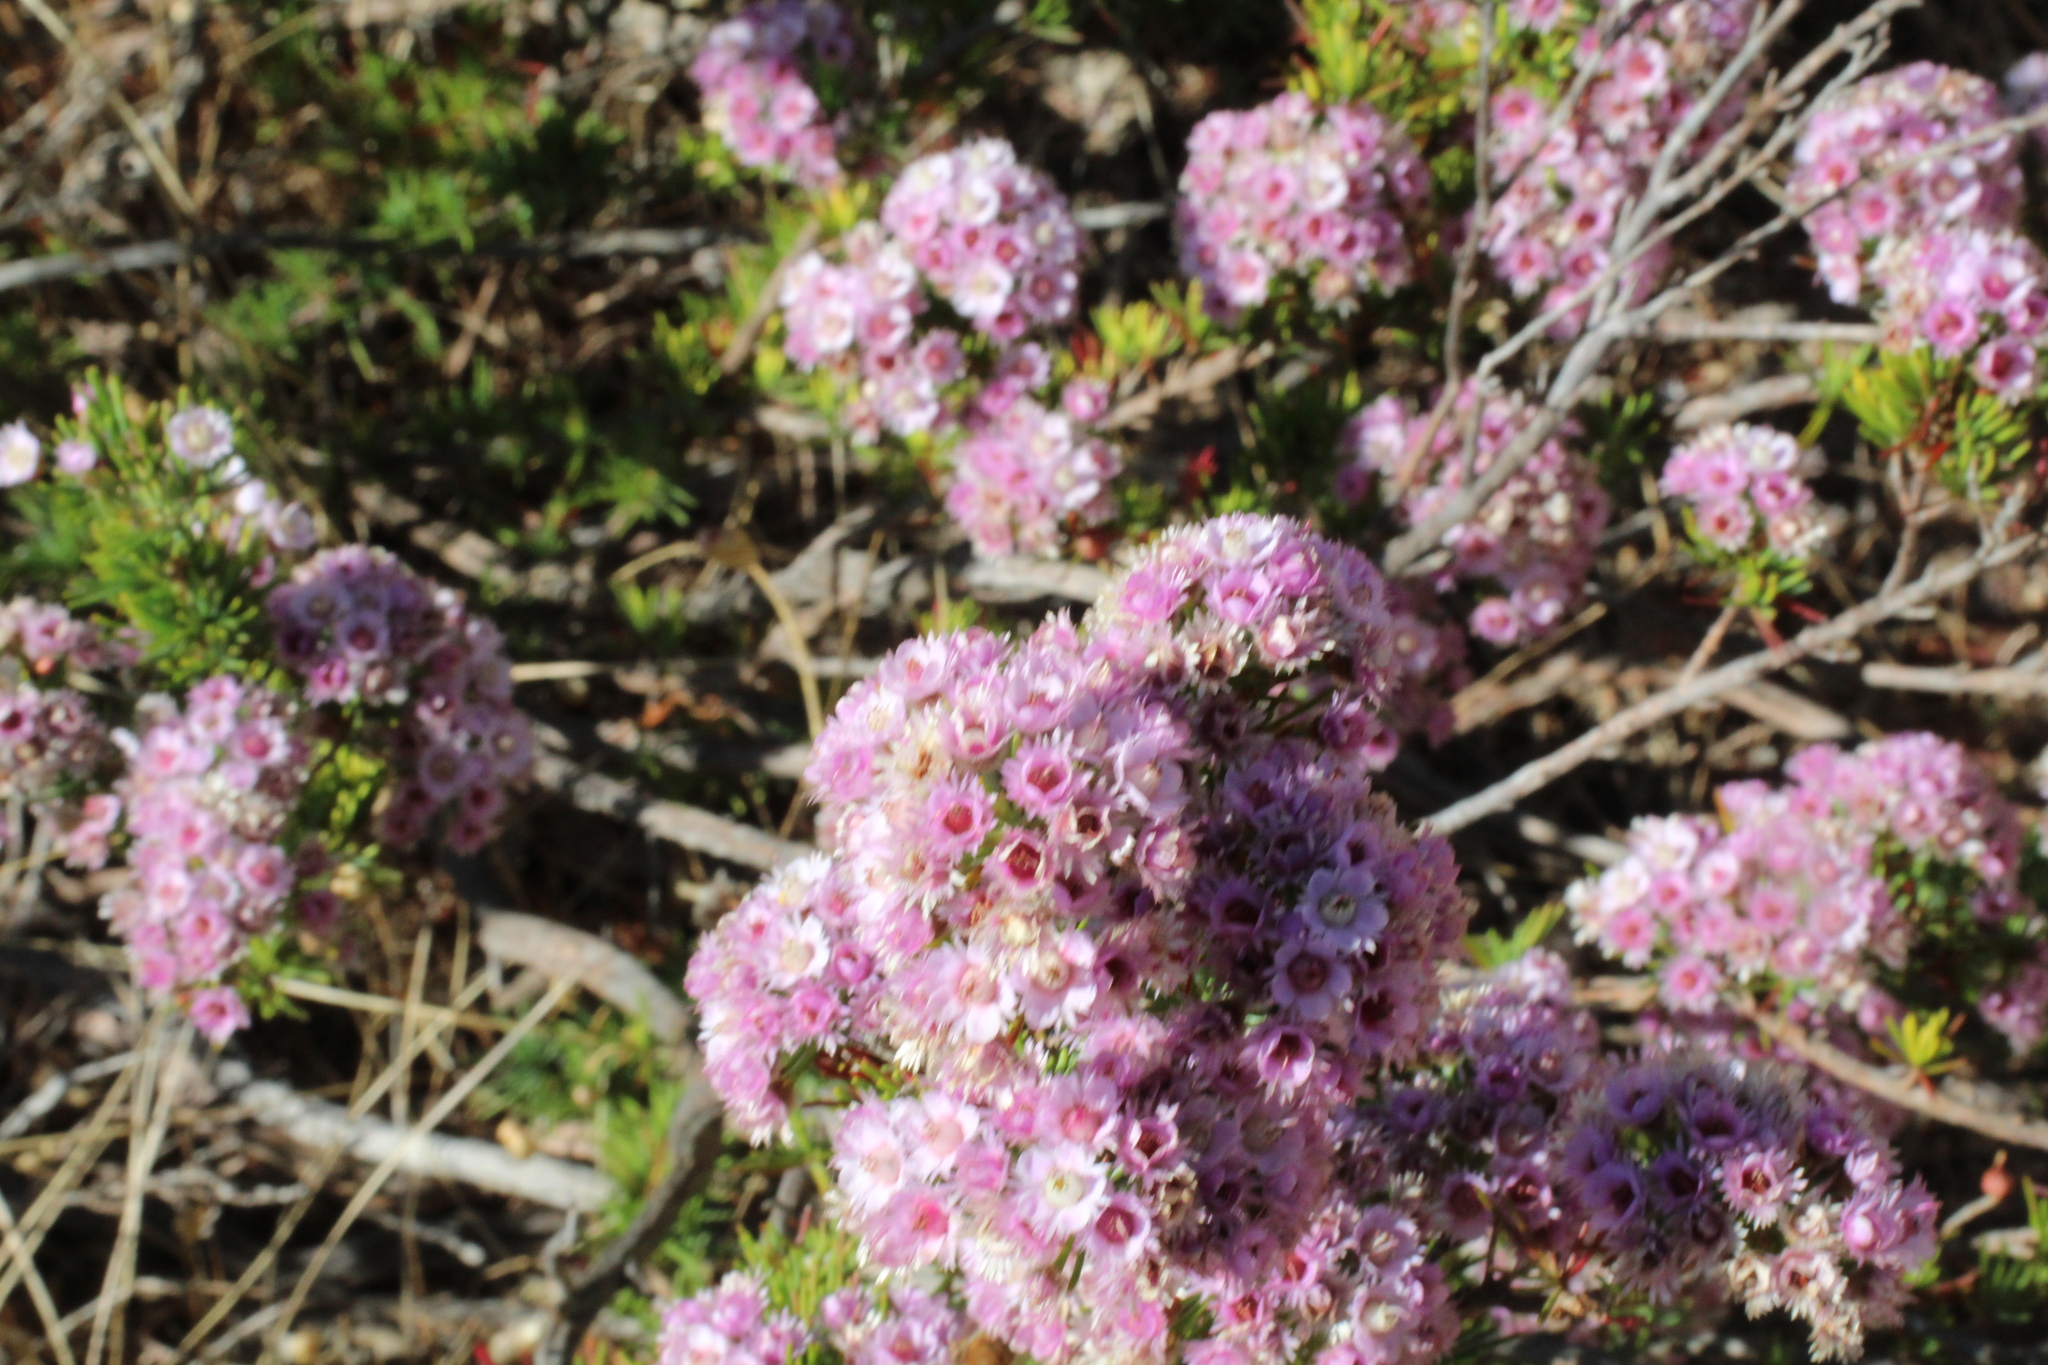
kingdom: Plantae
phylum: Tracheophyta
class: Magnoliopsida
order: Myrtales
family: Myrtaceae
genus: Verticordia
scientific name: Verticordia plumosa
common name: Plume feather-flower
